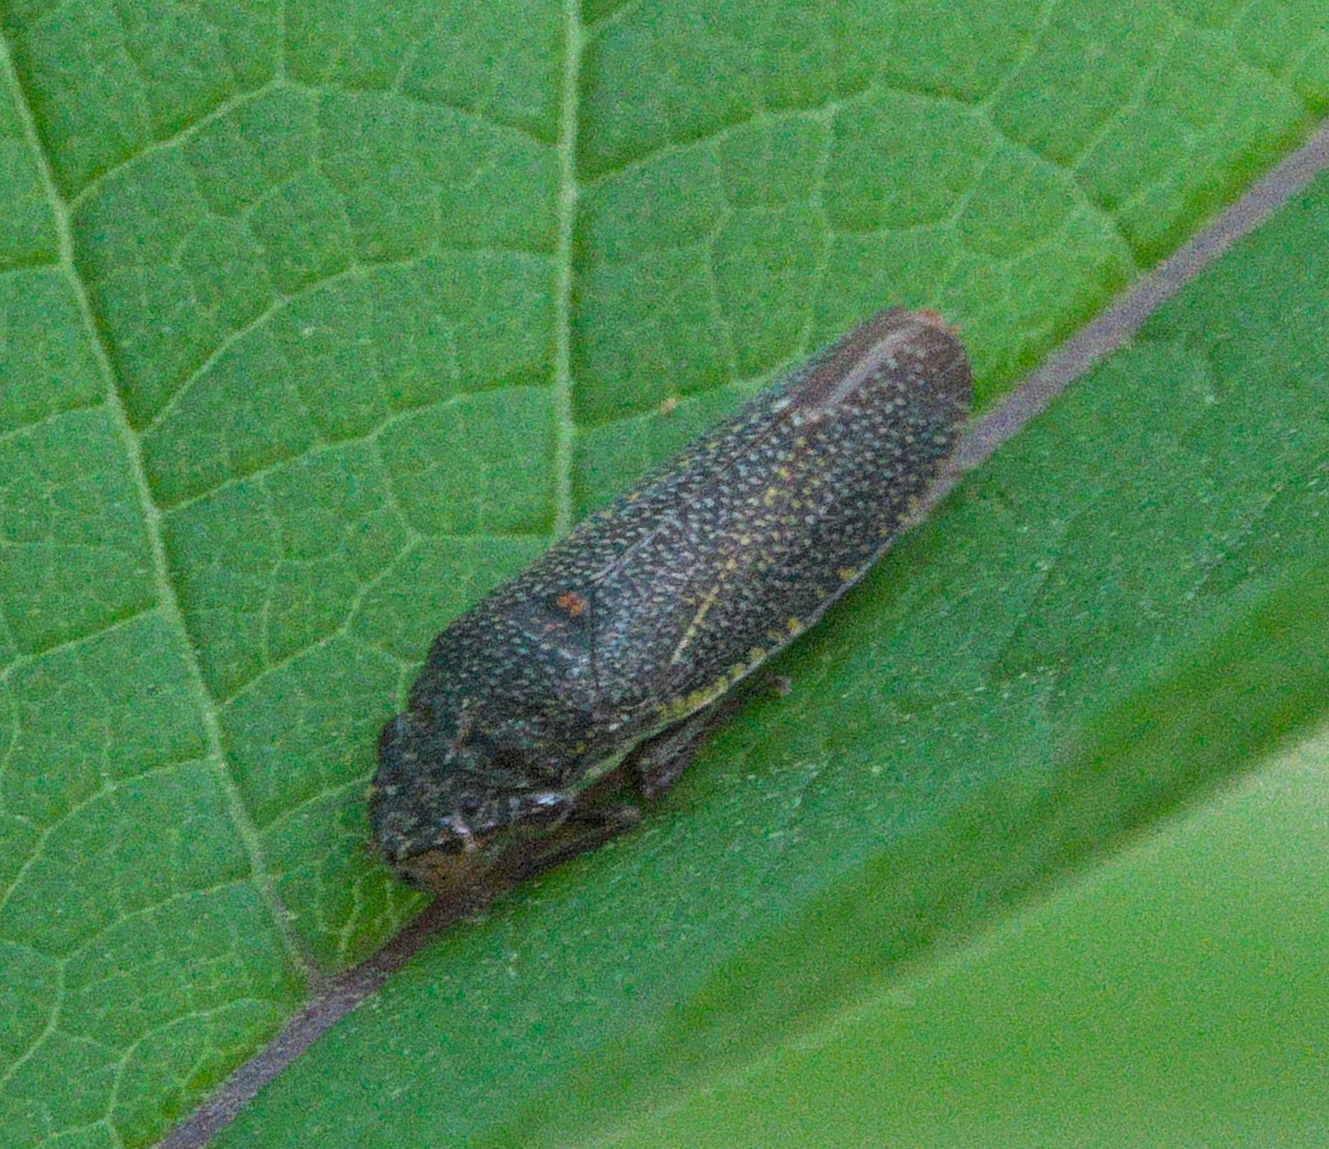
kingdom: Animalia
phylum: Arthropoda
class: Insecta
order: Hemiptera
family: Cicadellidae
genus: Paraulacizes
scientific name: Paraulacizes irrorata
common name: Speckled sharpshooter
